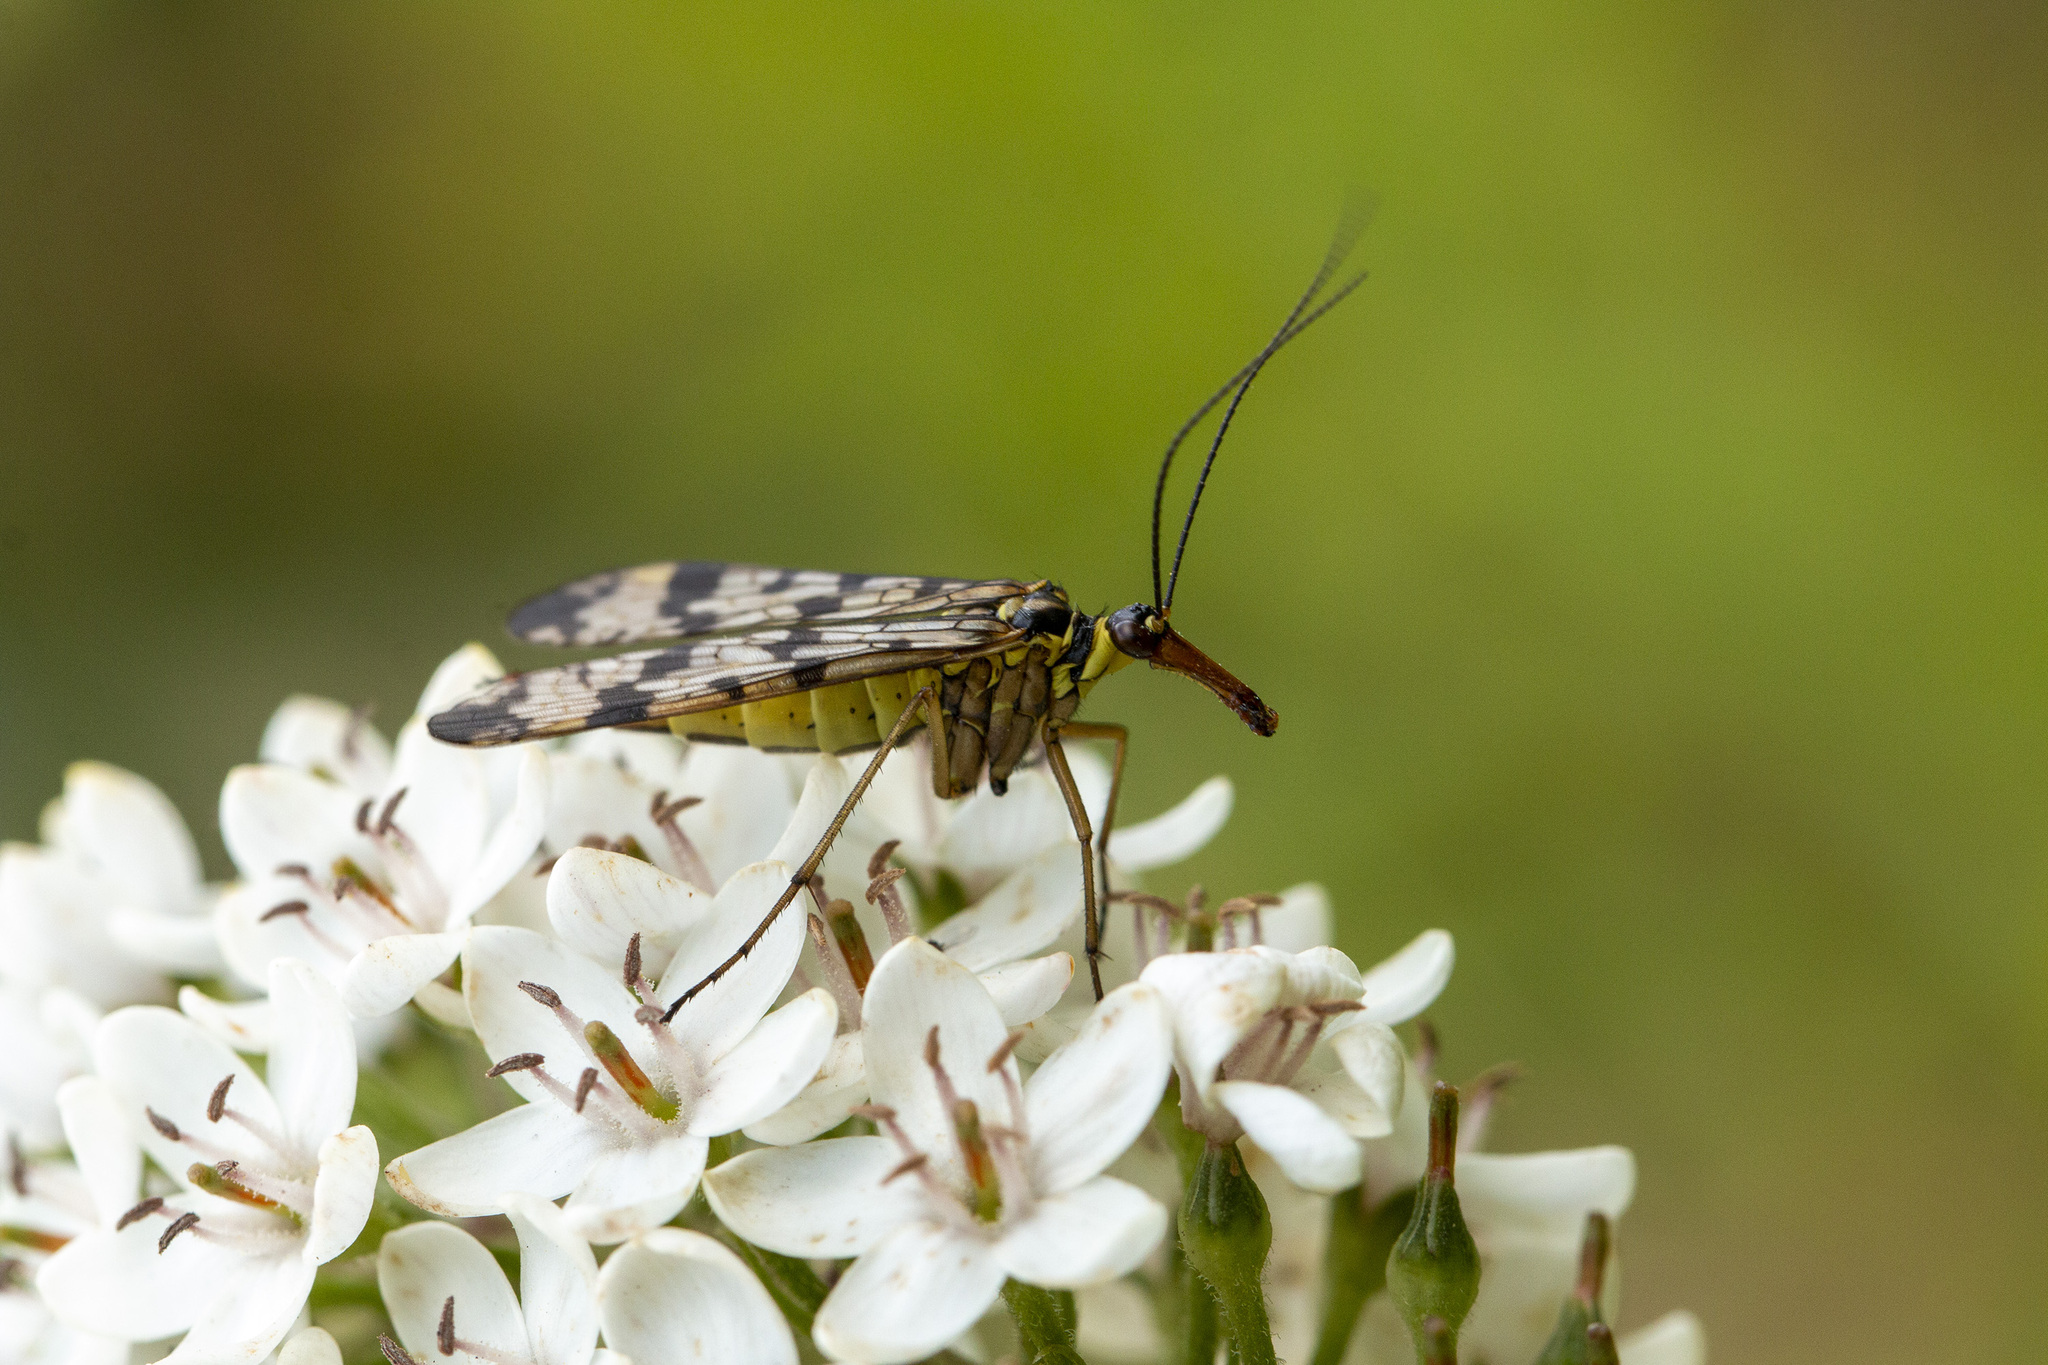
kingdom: Animalia
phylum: Arthropoda
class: Insecta
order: Mecoptera
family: Panorpidae
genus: Panorpa
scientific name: Panorpa communis
